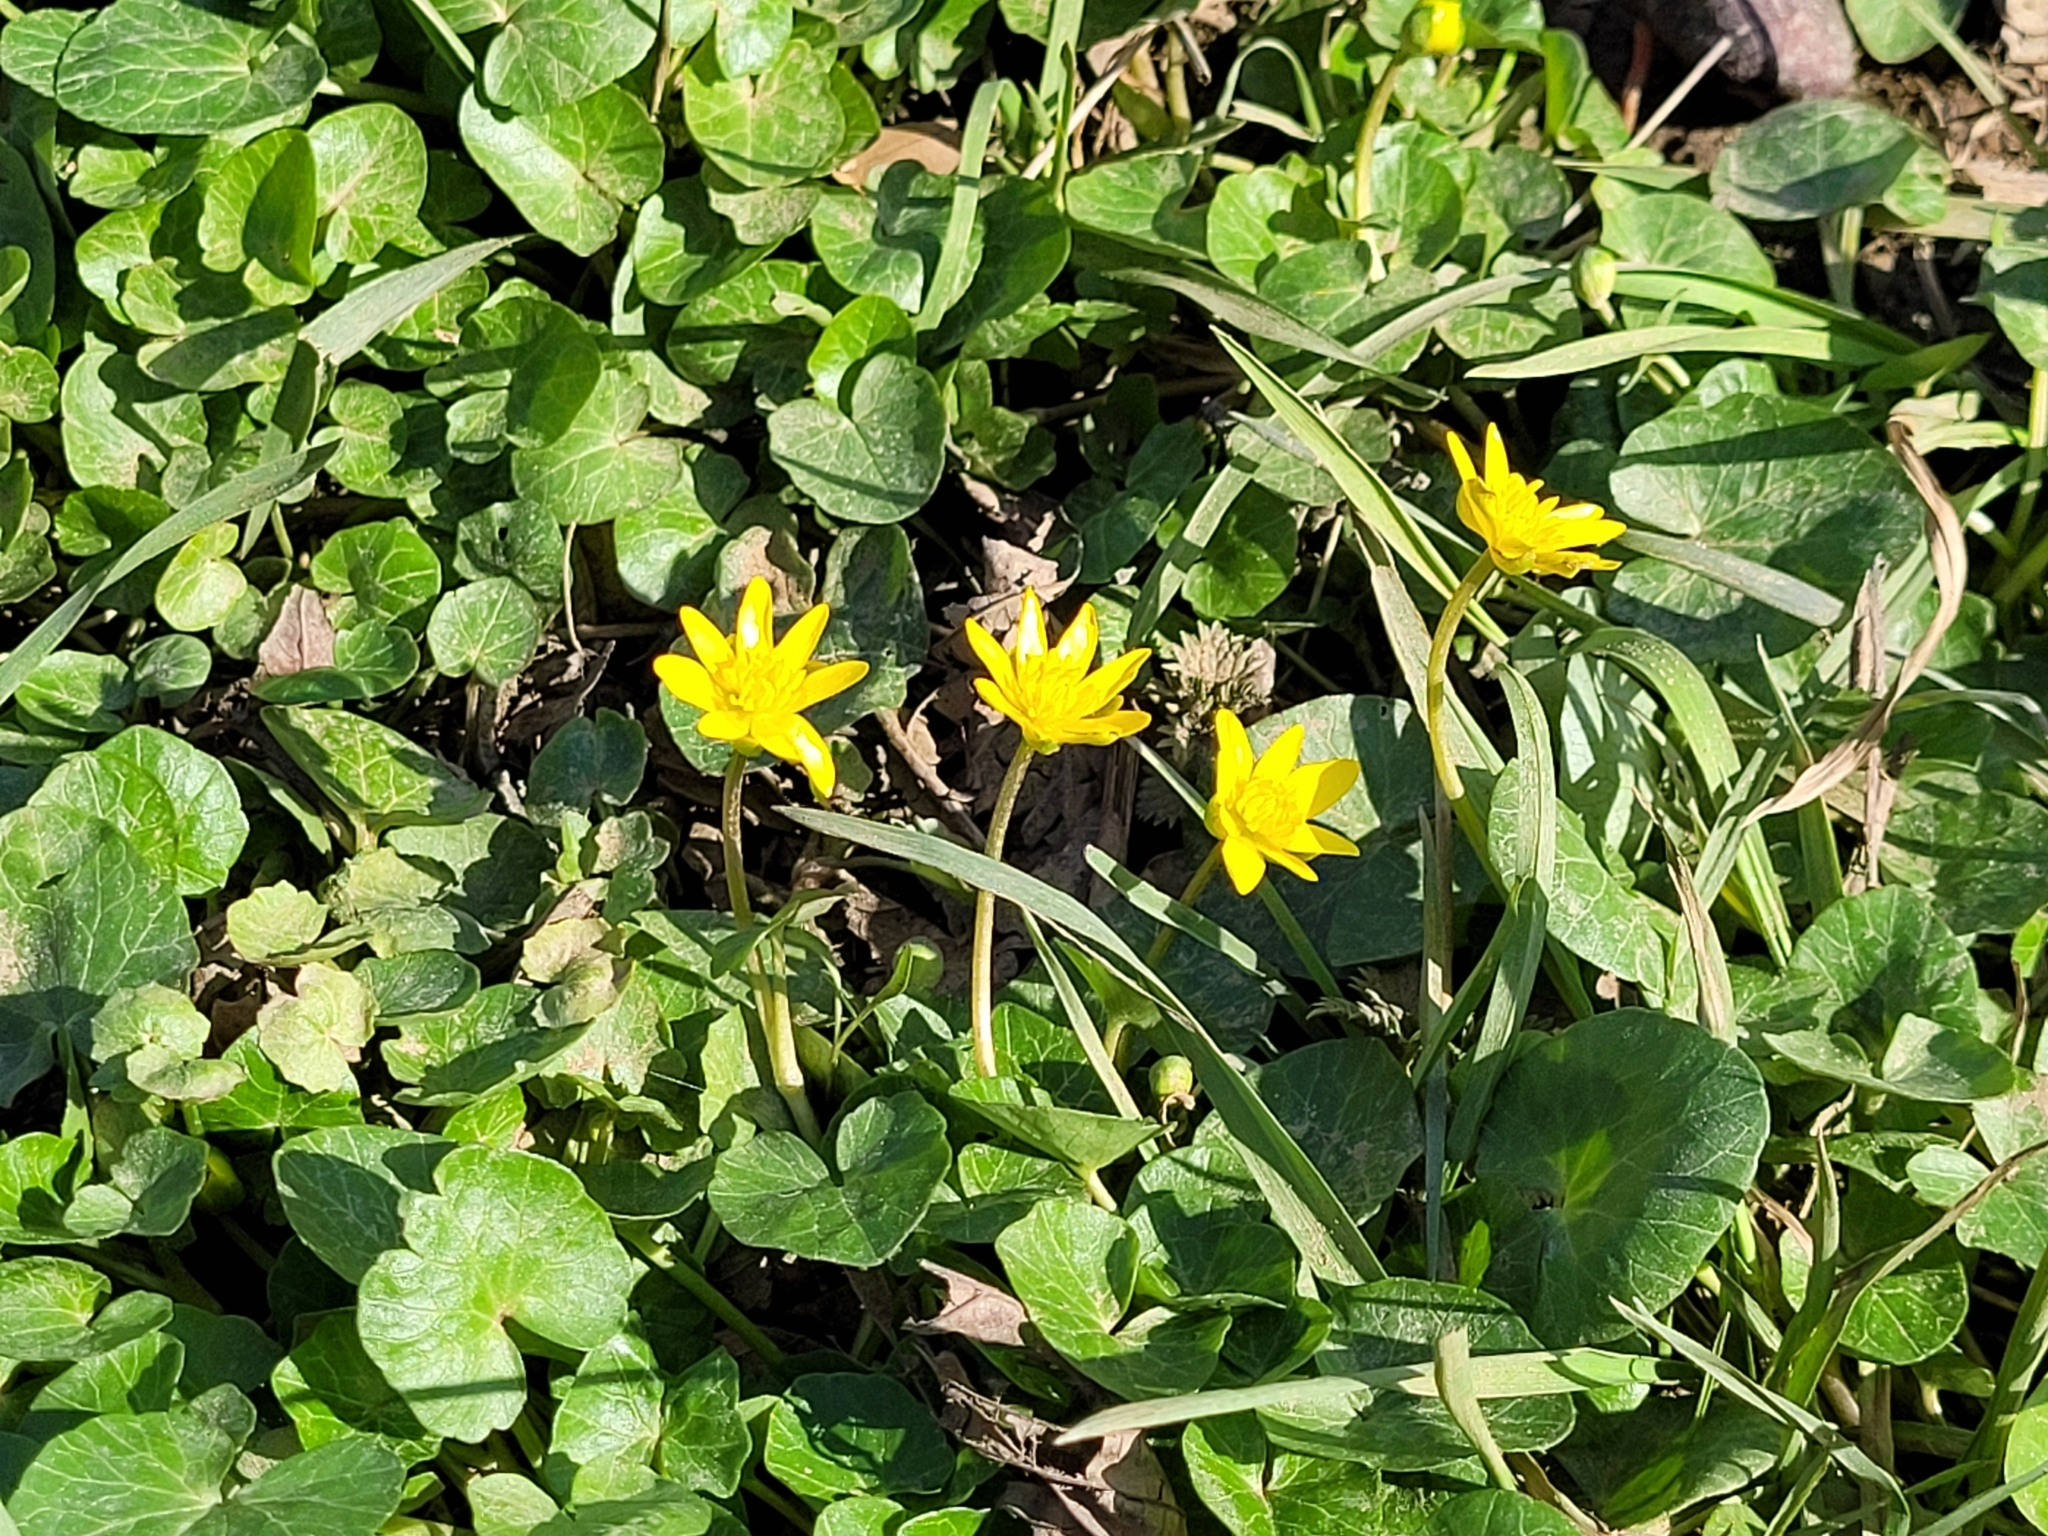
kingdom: Plantae
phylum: Tracheophyta
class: Magnoliopsida
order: Ranunculales
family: Ranunculaceae
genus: Ficaria
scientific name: Ficaria verna
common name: Lesser celandine
